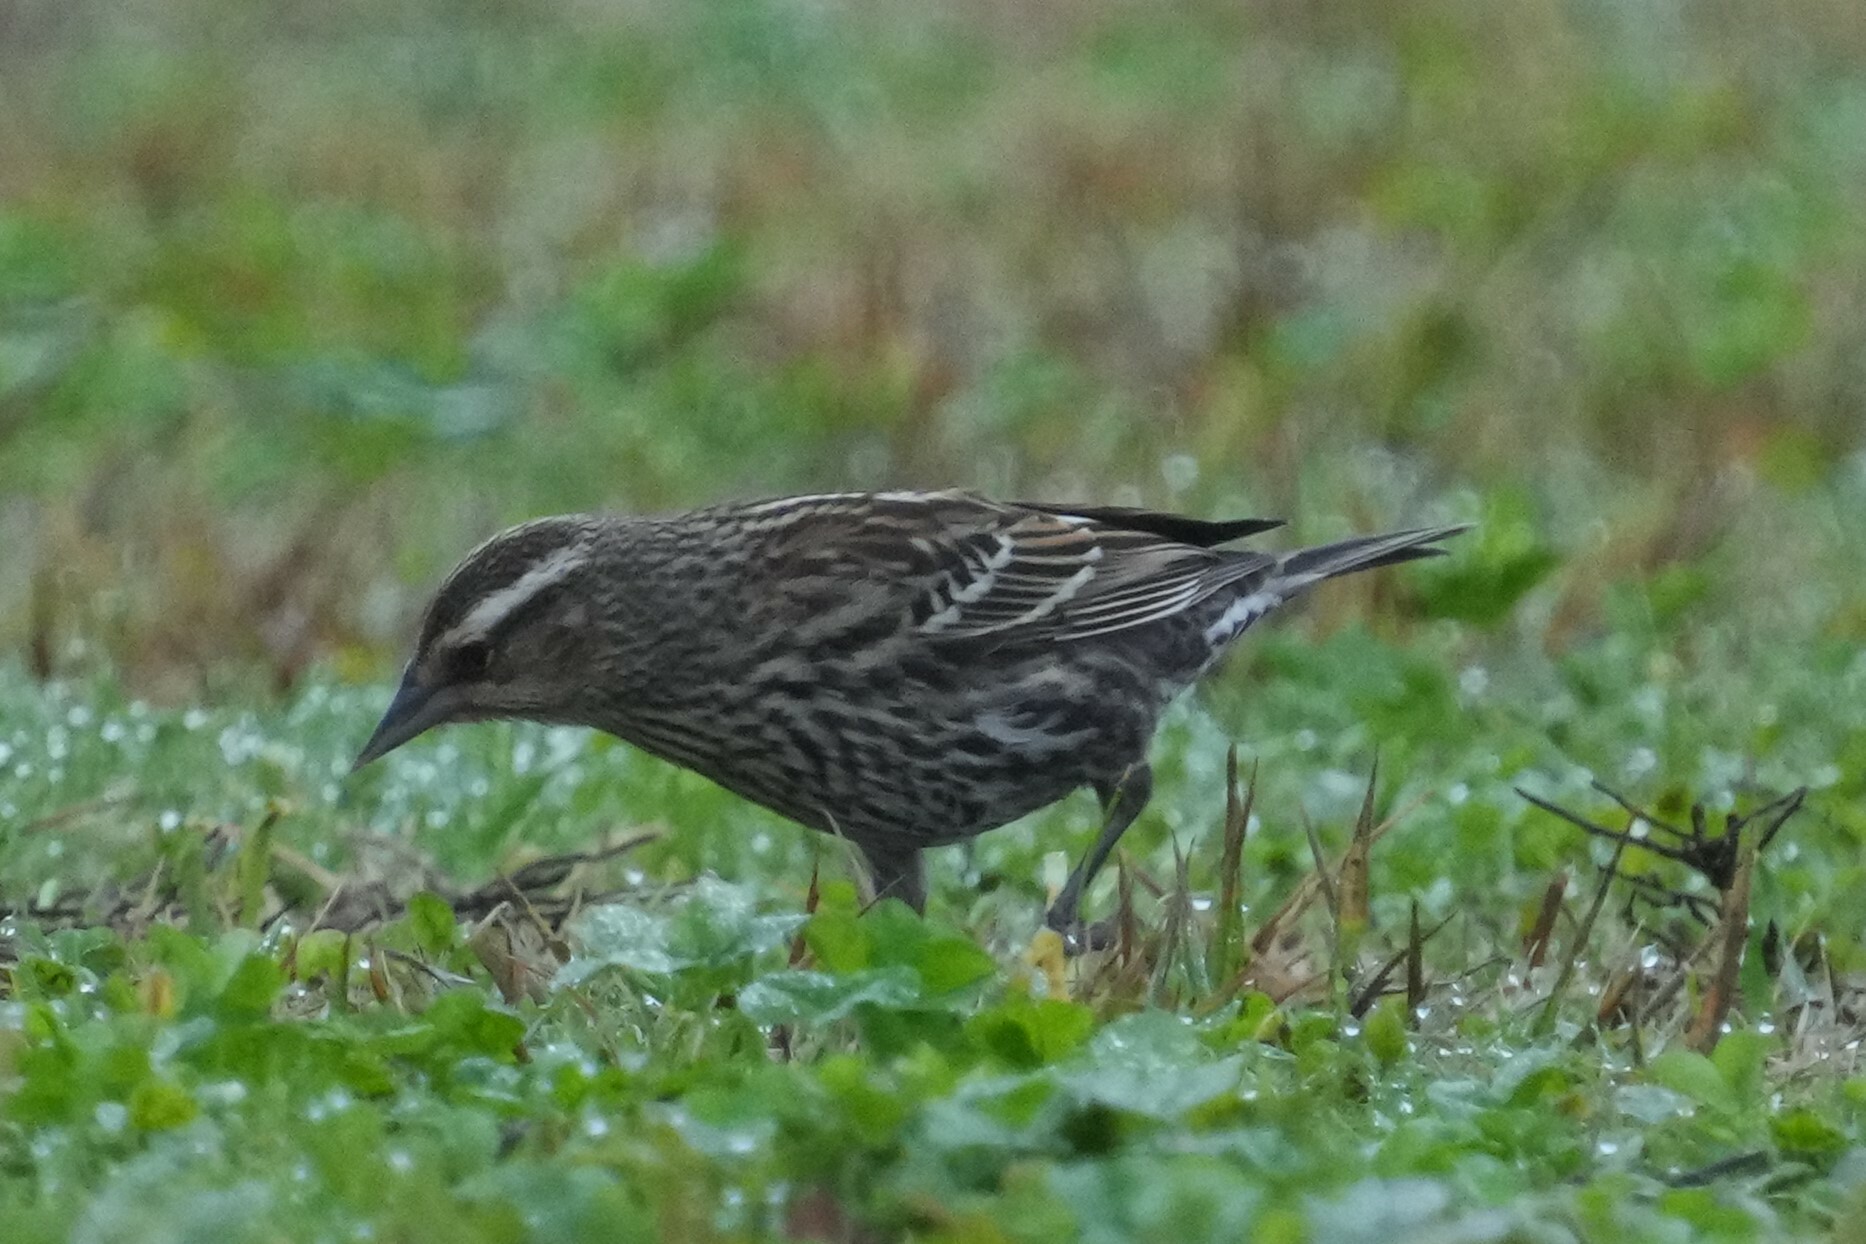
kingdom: Animalia
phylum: Chordata
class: Aves
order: Passeriformes
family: Icteridae
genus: Agelaius
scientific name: Agelaius phoeniceus
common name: Red-winged blackbird
